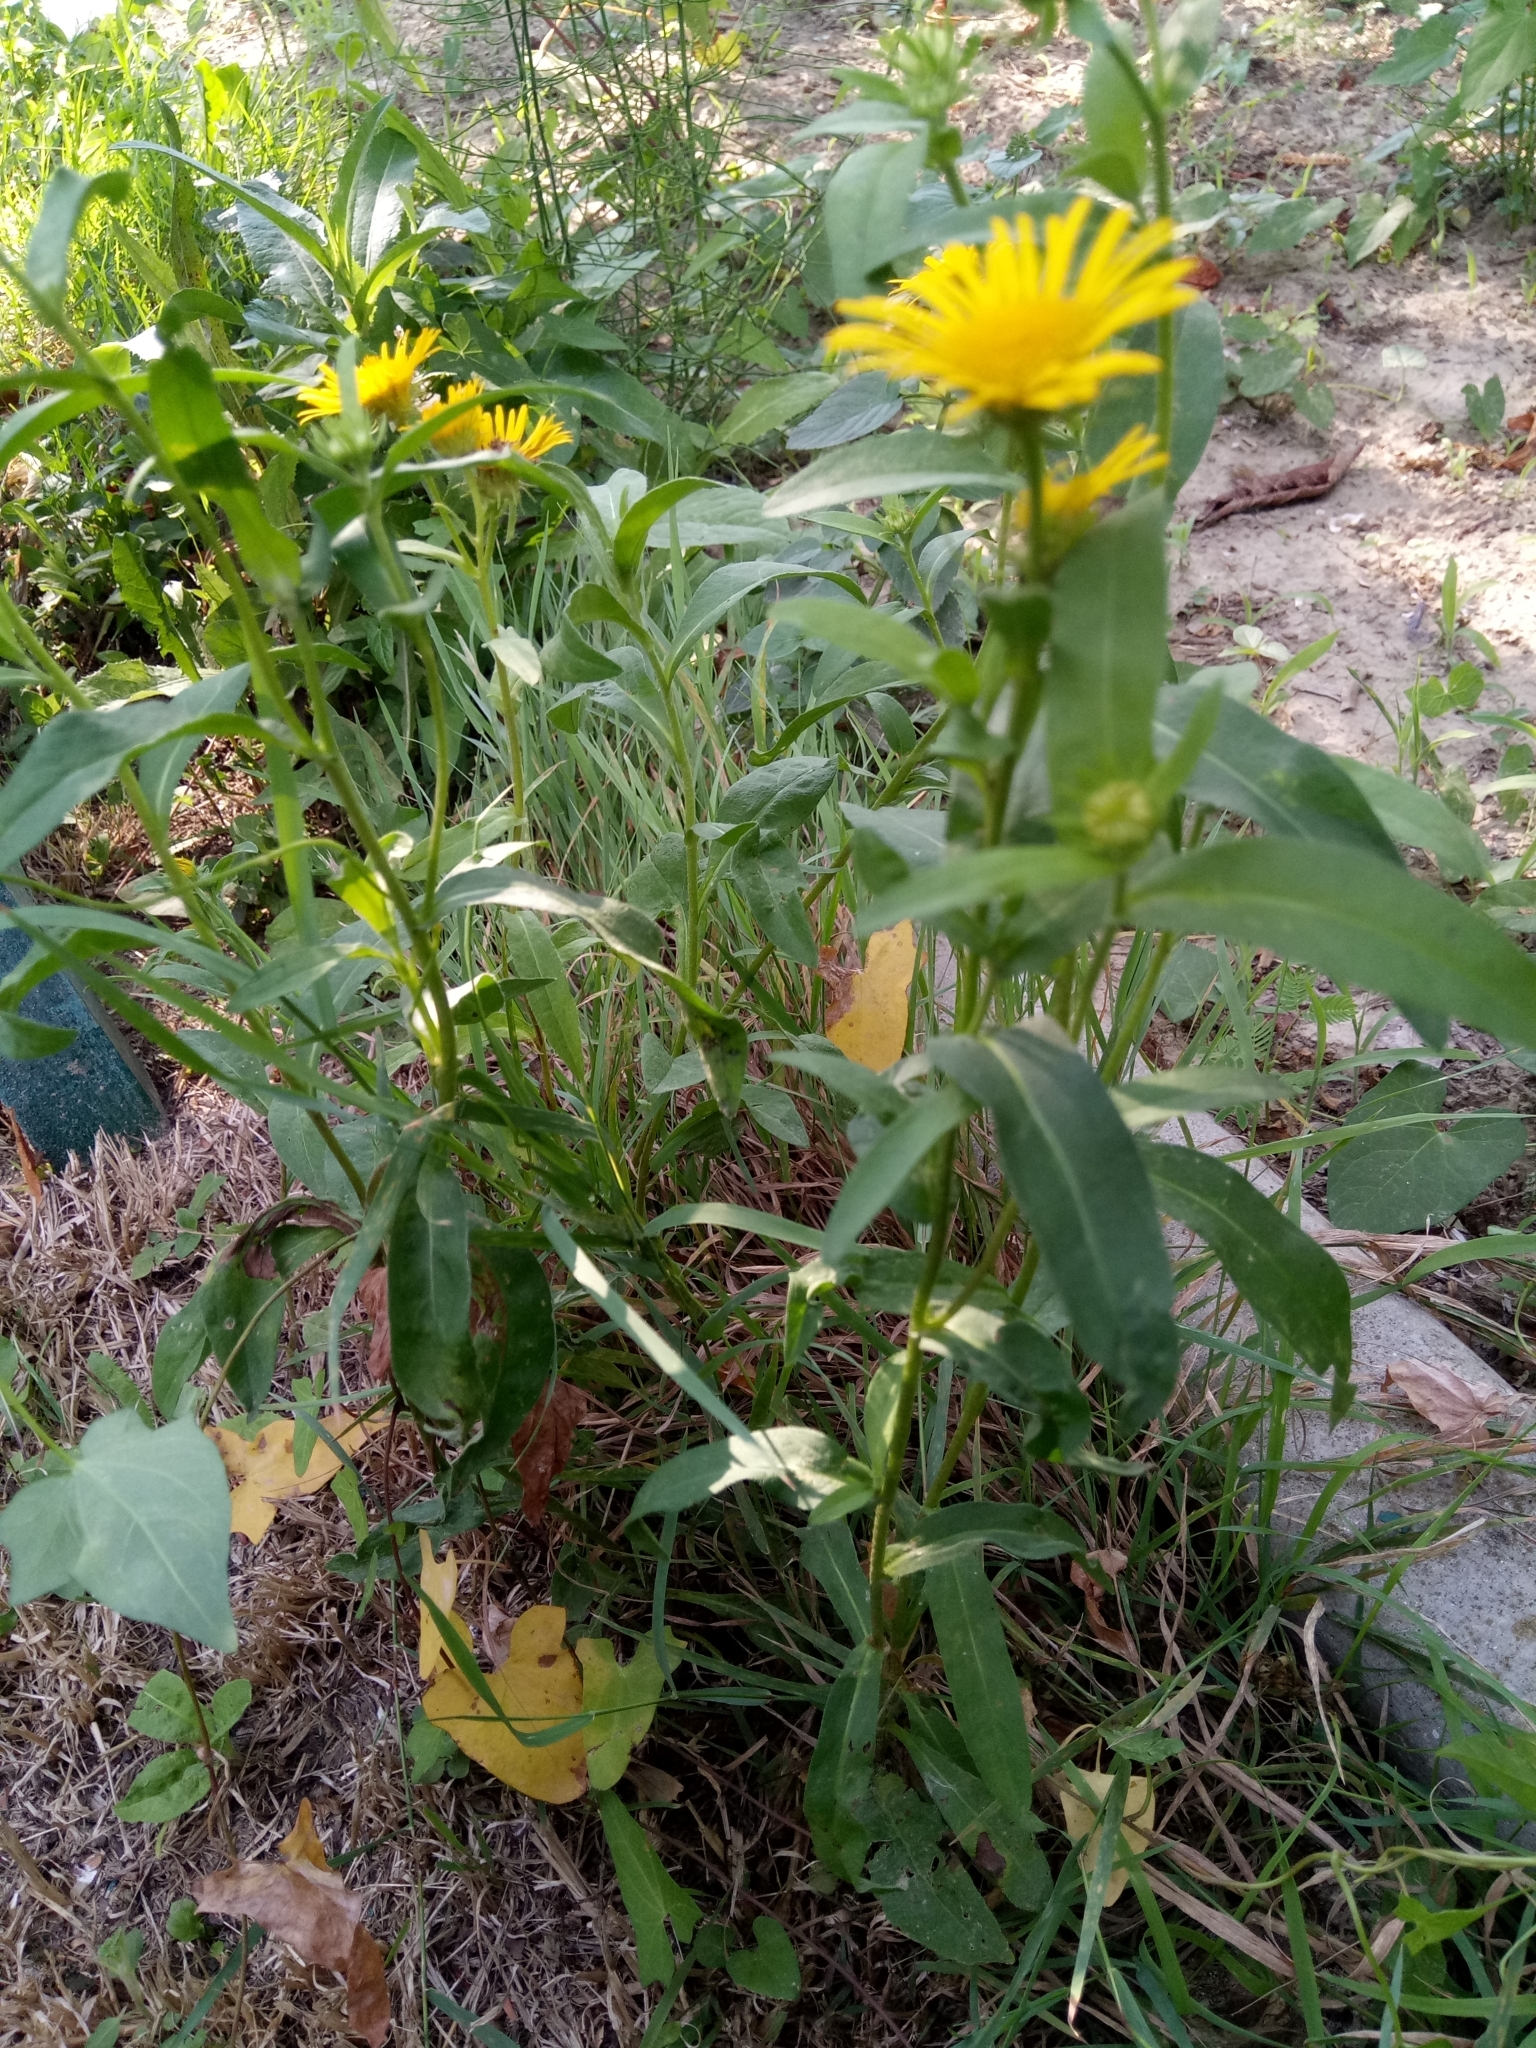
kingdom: Plantae
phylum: Tracheophyta
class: Magnoliopsida
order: Asterales
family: Asteraceae
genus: Pentanema
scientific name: Pentanema britannicum
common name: British elecampane
